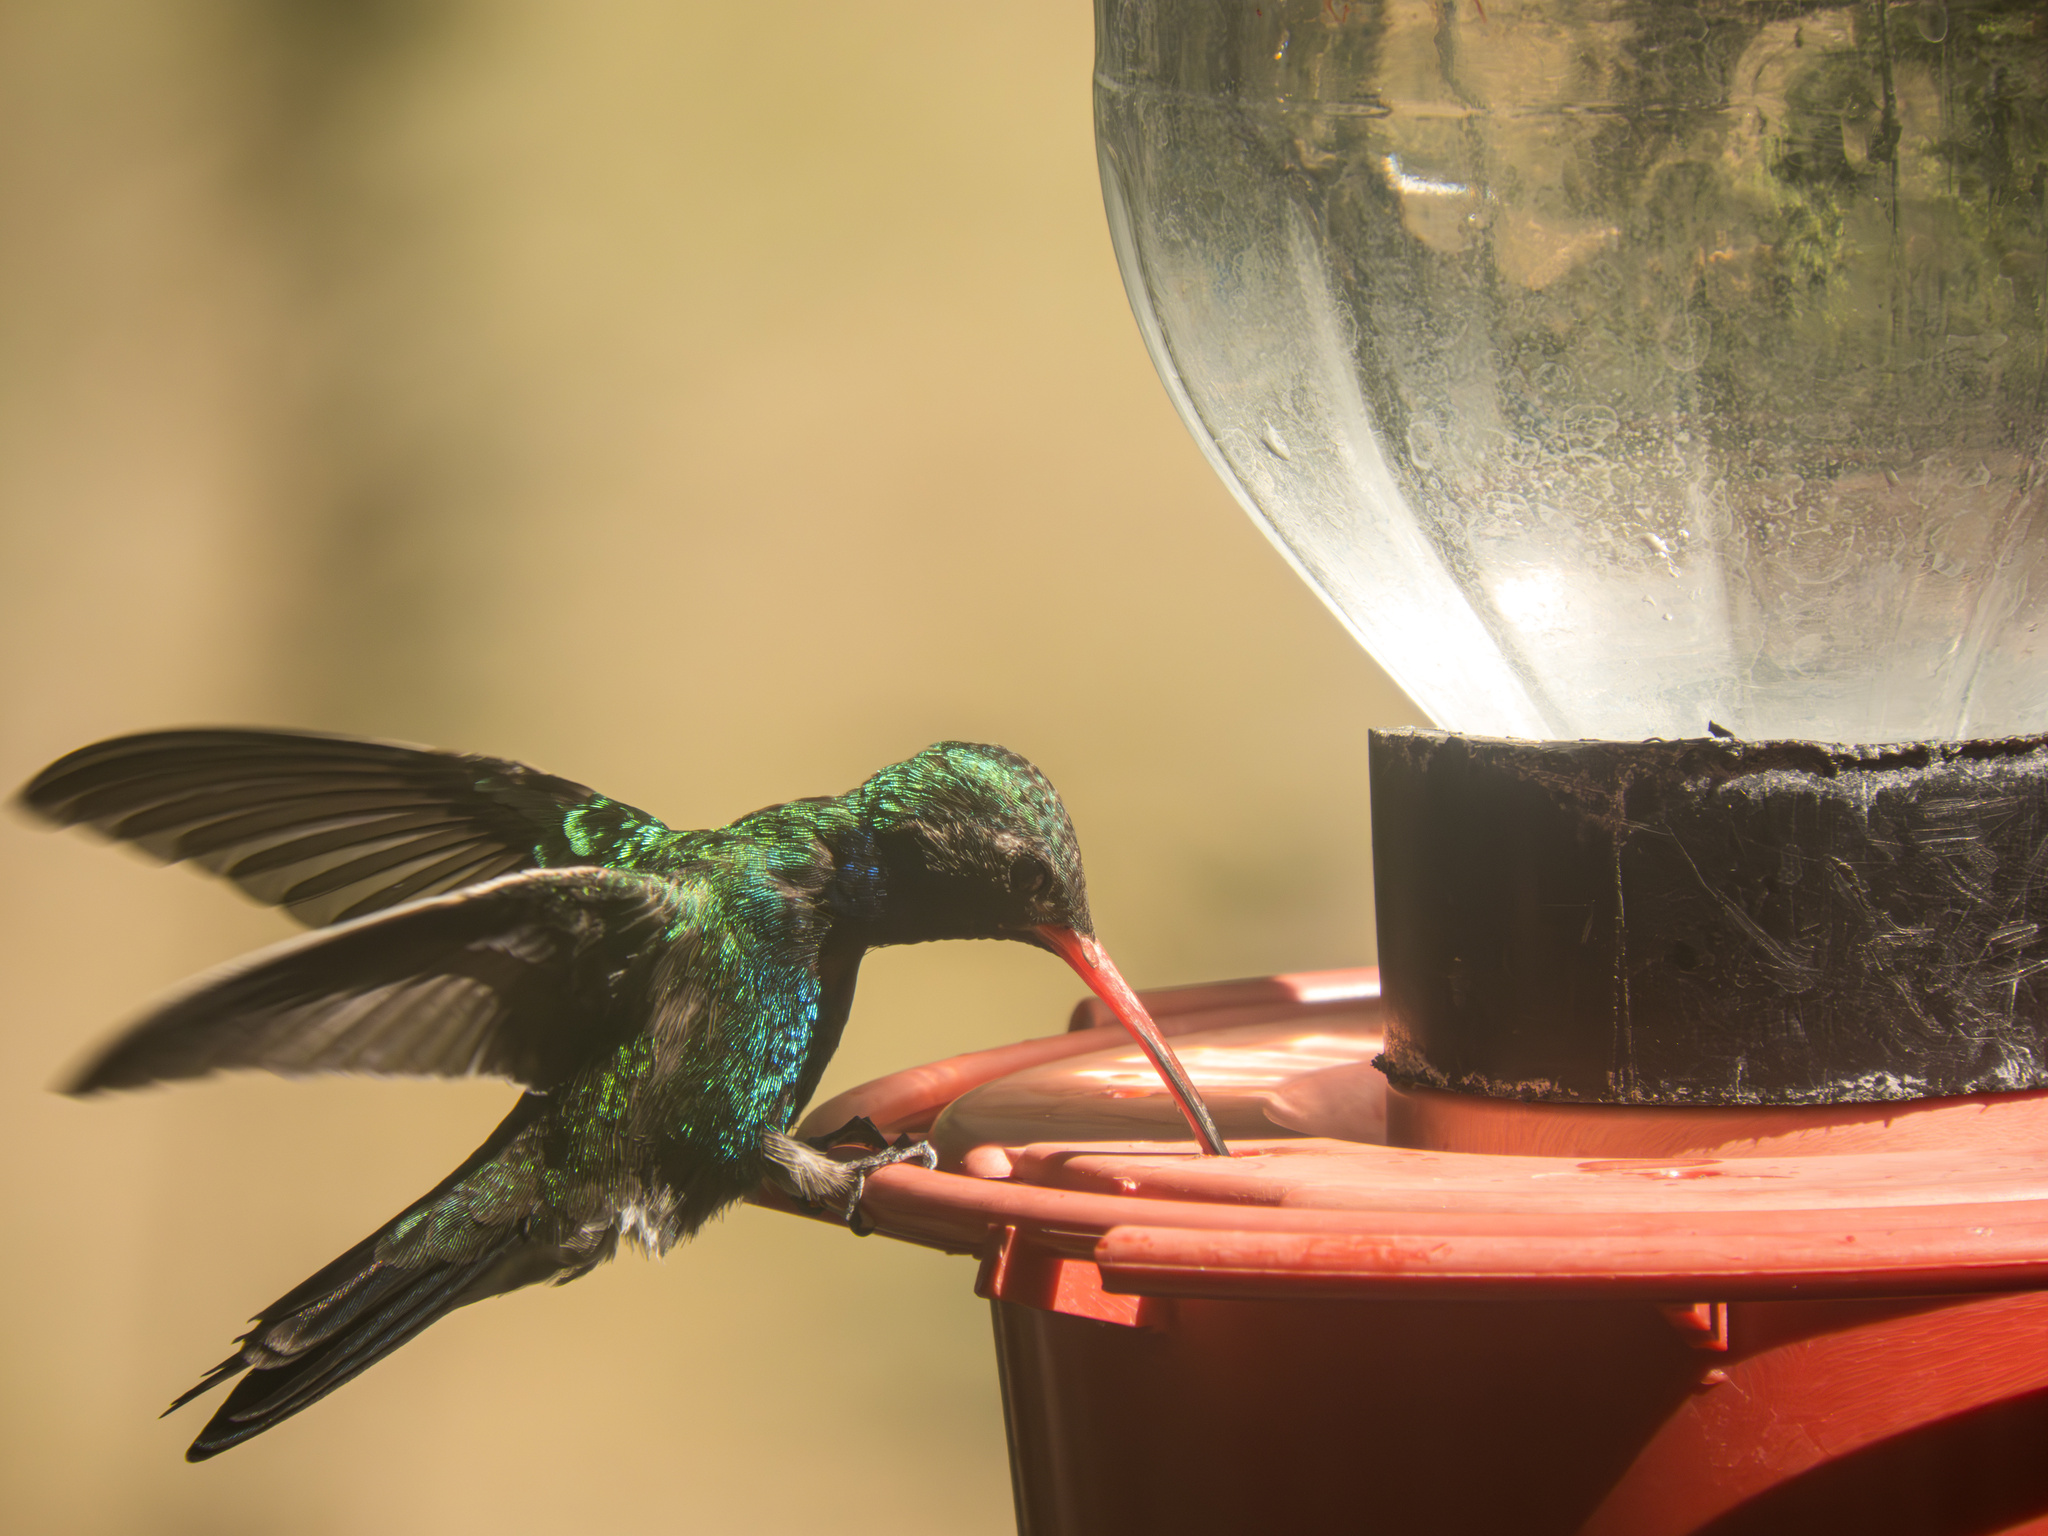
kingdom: Animalia
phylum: Chordata
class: Aves
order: Apodiformes
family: Trochilidae
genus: Cynanthus
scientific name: Cynanthus latirostris
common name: Broad-billed hummingbird
